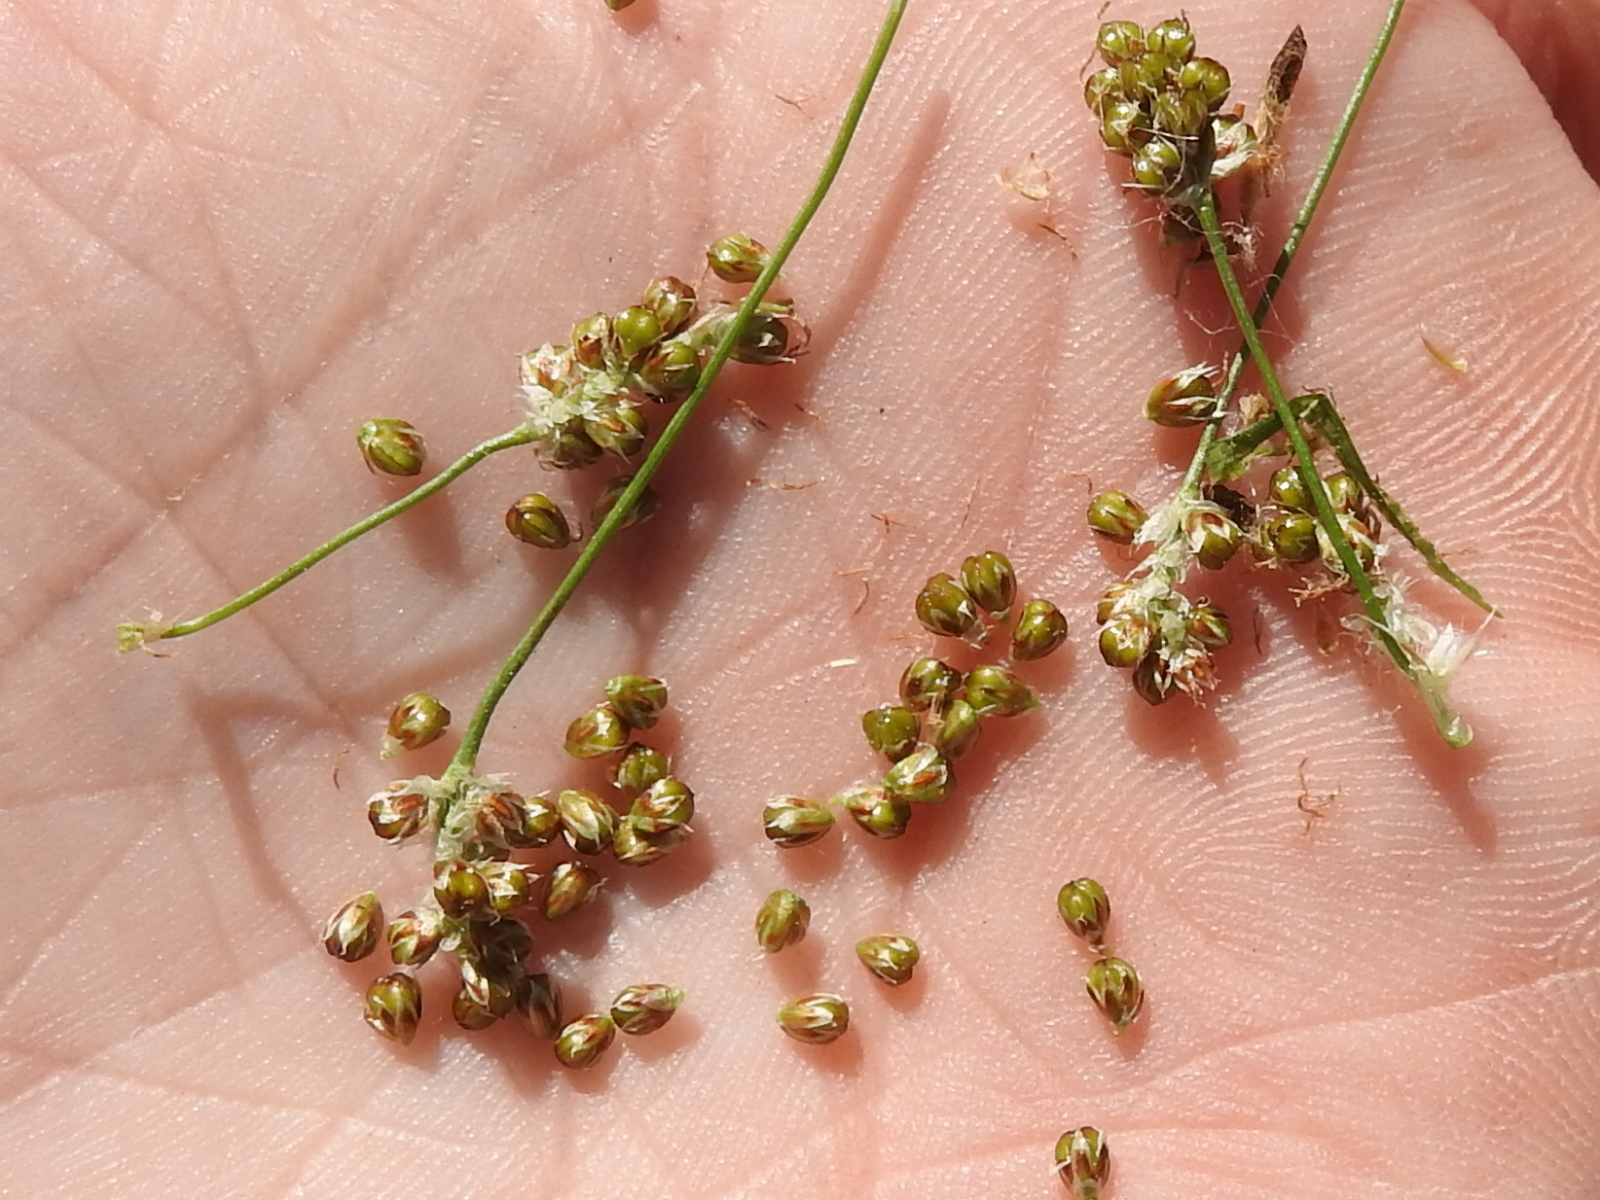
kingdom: Plantae
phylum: Tracheophyta
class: Liliopsida
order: Poales
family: Juncaceae
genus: Luzula
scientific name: Luzula bulbosa
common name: Bulbous woodrush
